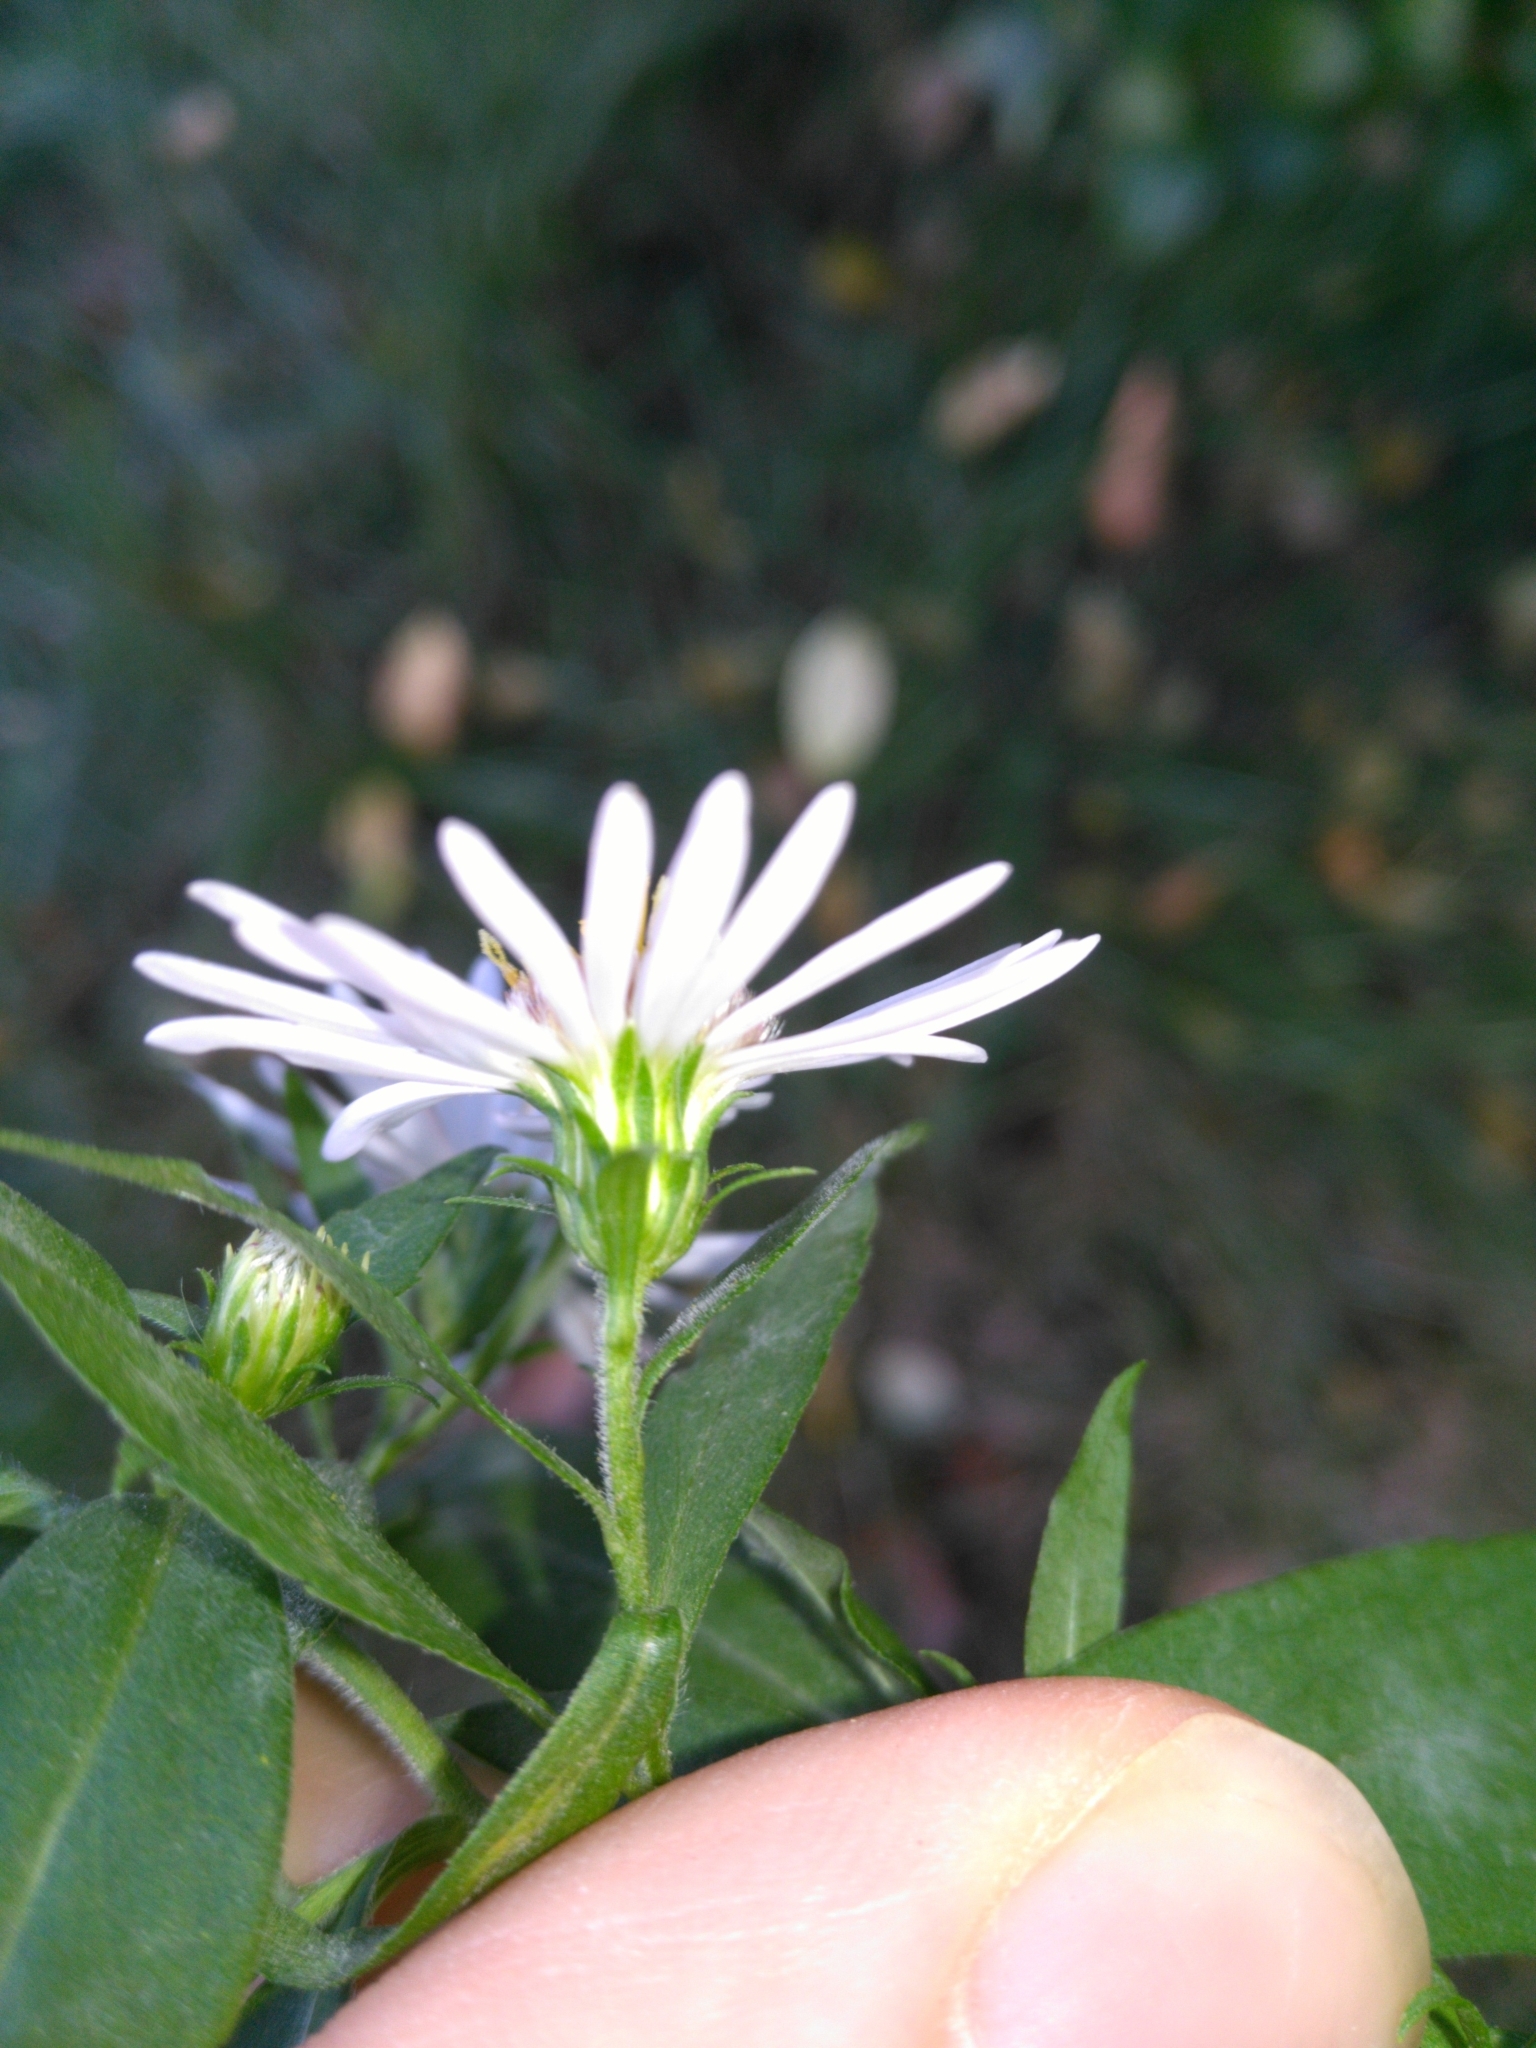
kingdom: Plantae
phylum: Tracheophyta
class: Magnoliopsida
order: Asterales
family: Asteraceae
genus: Symphyotrichum
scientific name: Symphyotrichum lanceolatum
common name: Panicled aster
